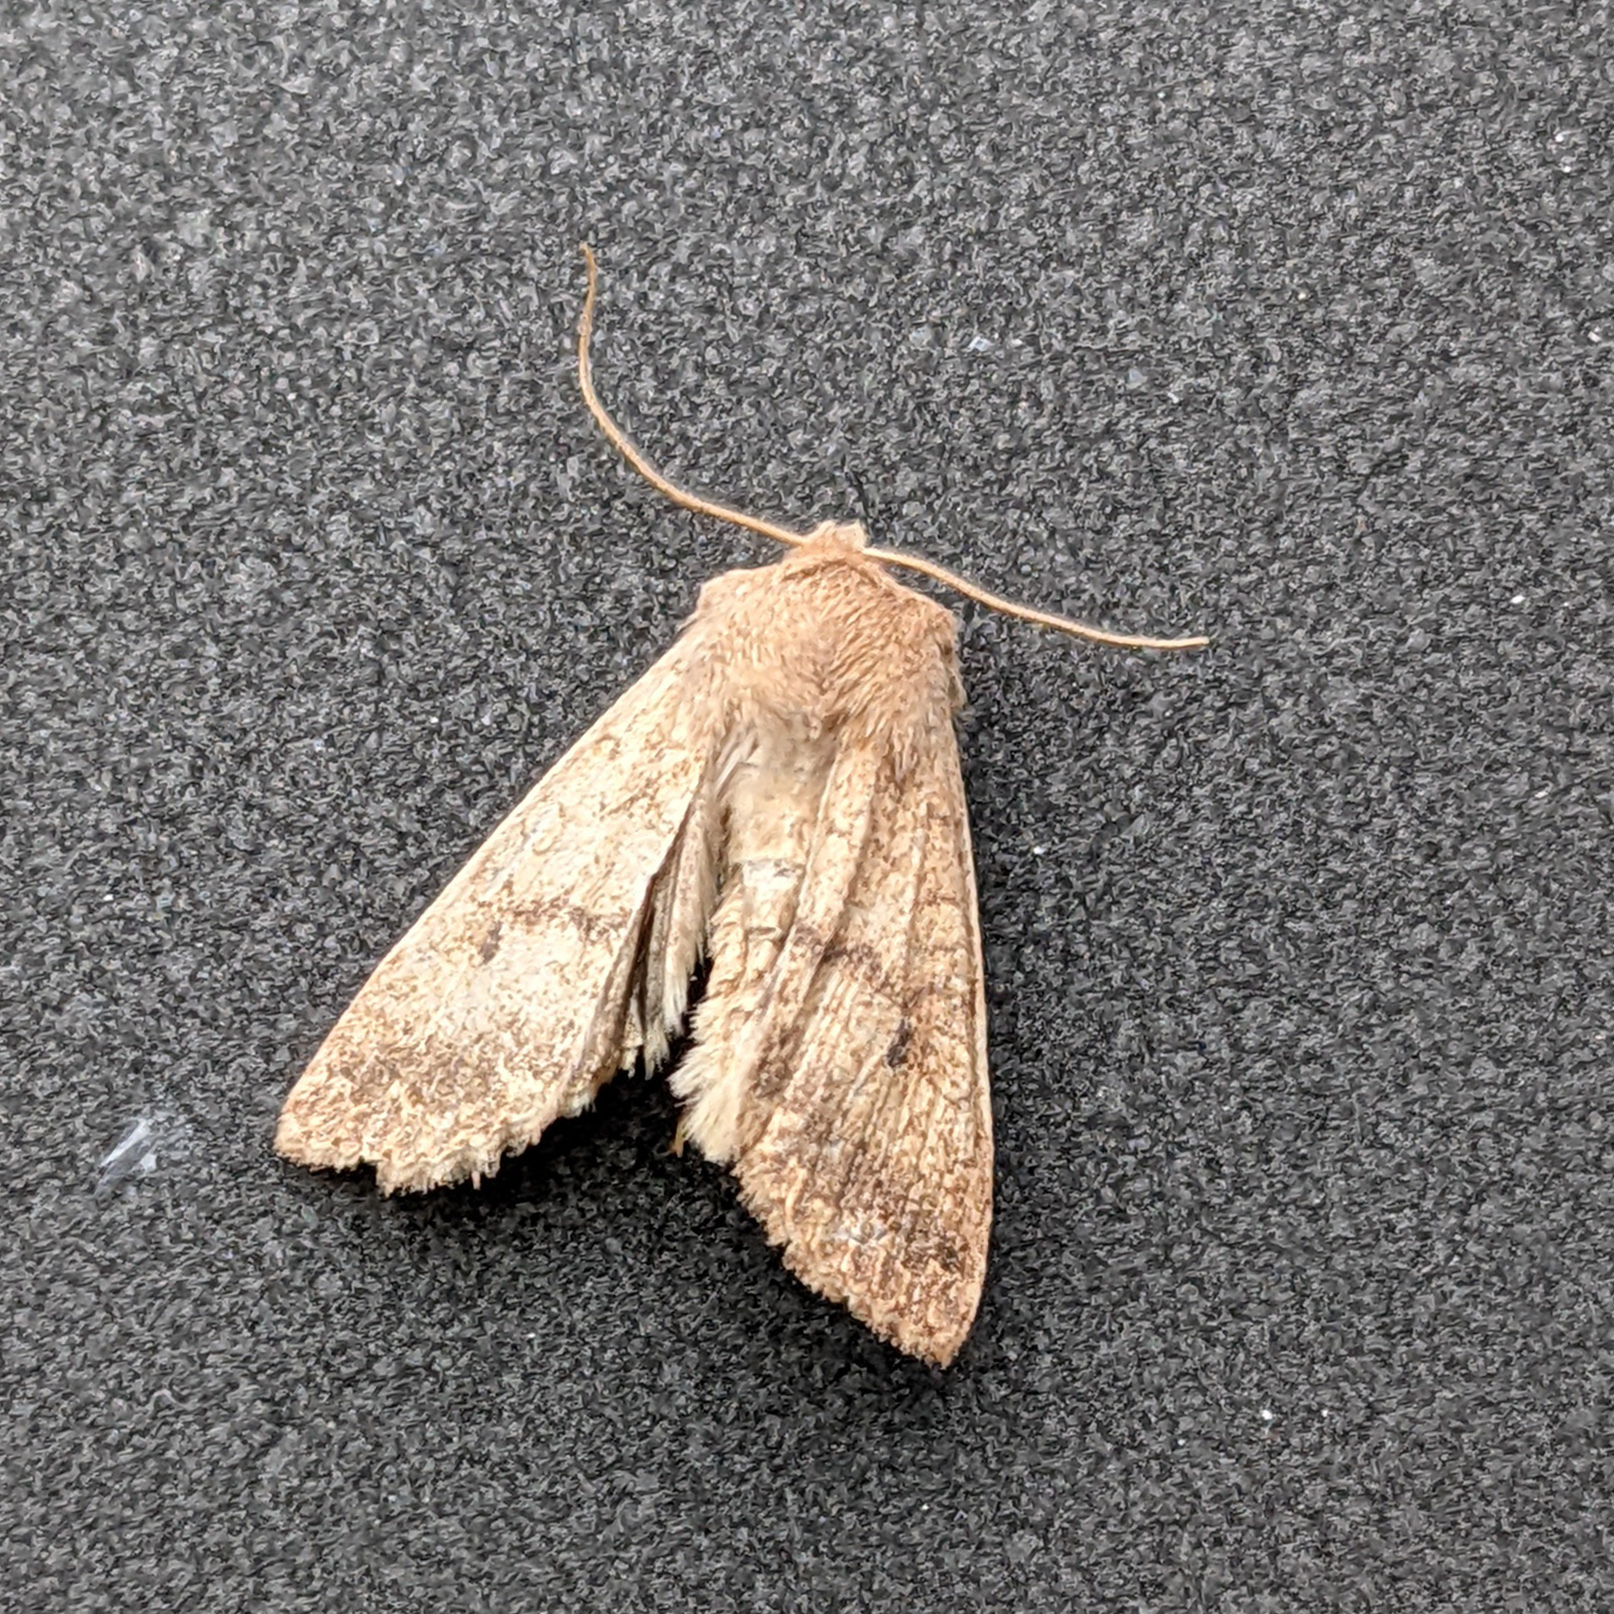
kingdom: Animalia
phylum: Arthropoda
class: Insecta
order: Lepidoptera
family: Noctuidae
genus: Agrochola
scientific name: Agrochola bicolorago
